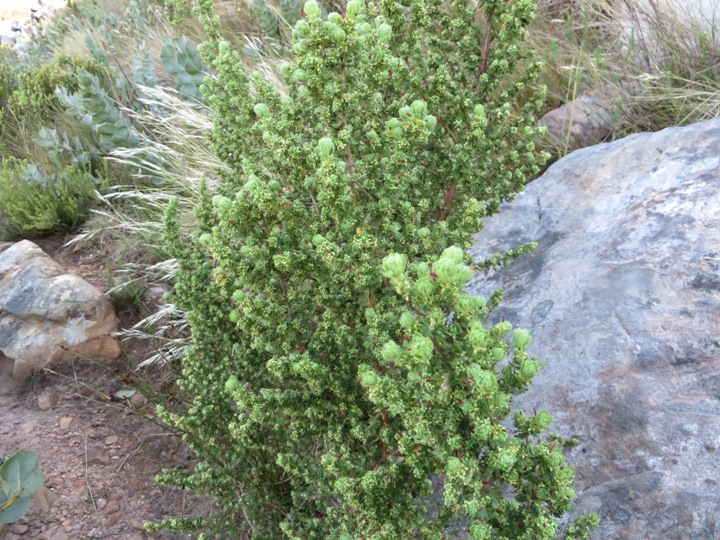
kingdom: Plantae
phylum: Tracheophyta
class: Magnoliopsida
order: Rosales
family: Rosaceae
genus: Cliffortia
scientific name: Cliffortia polygonifolia
